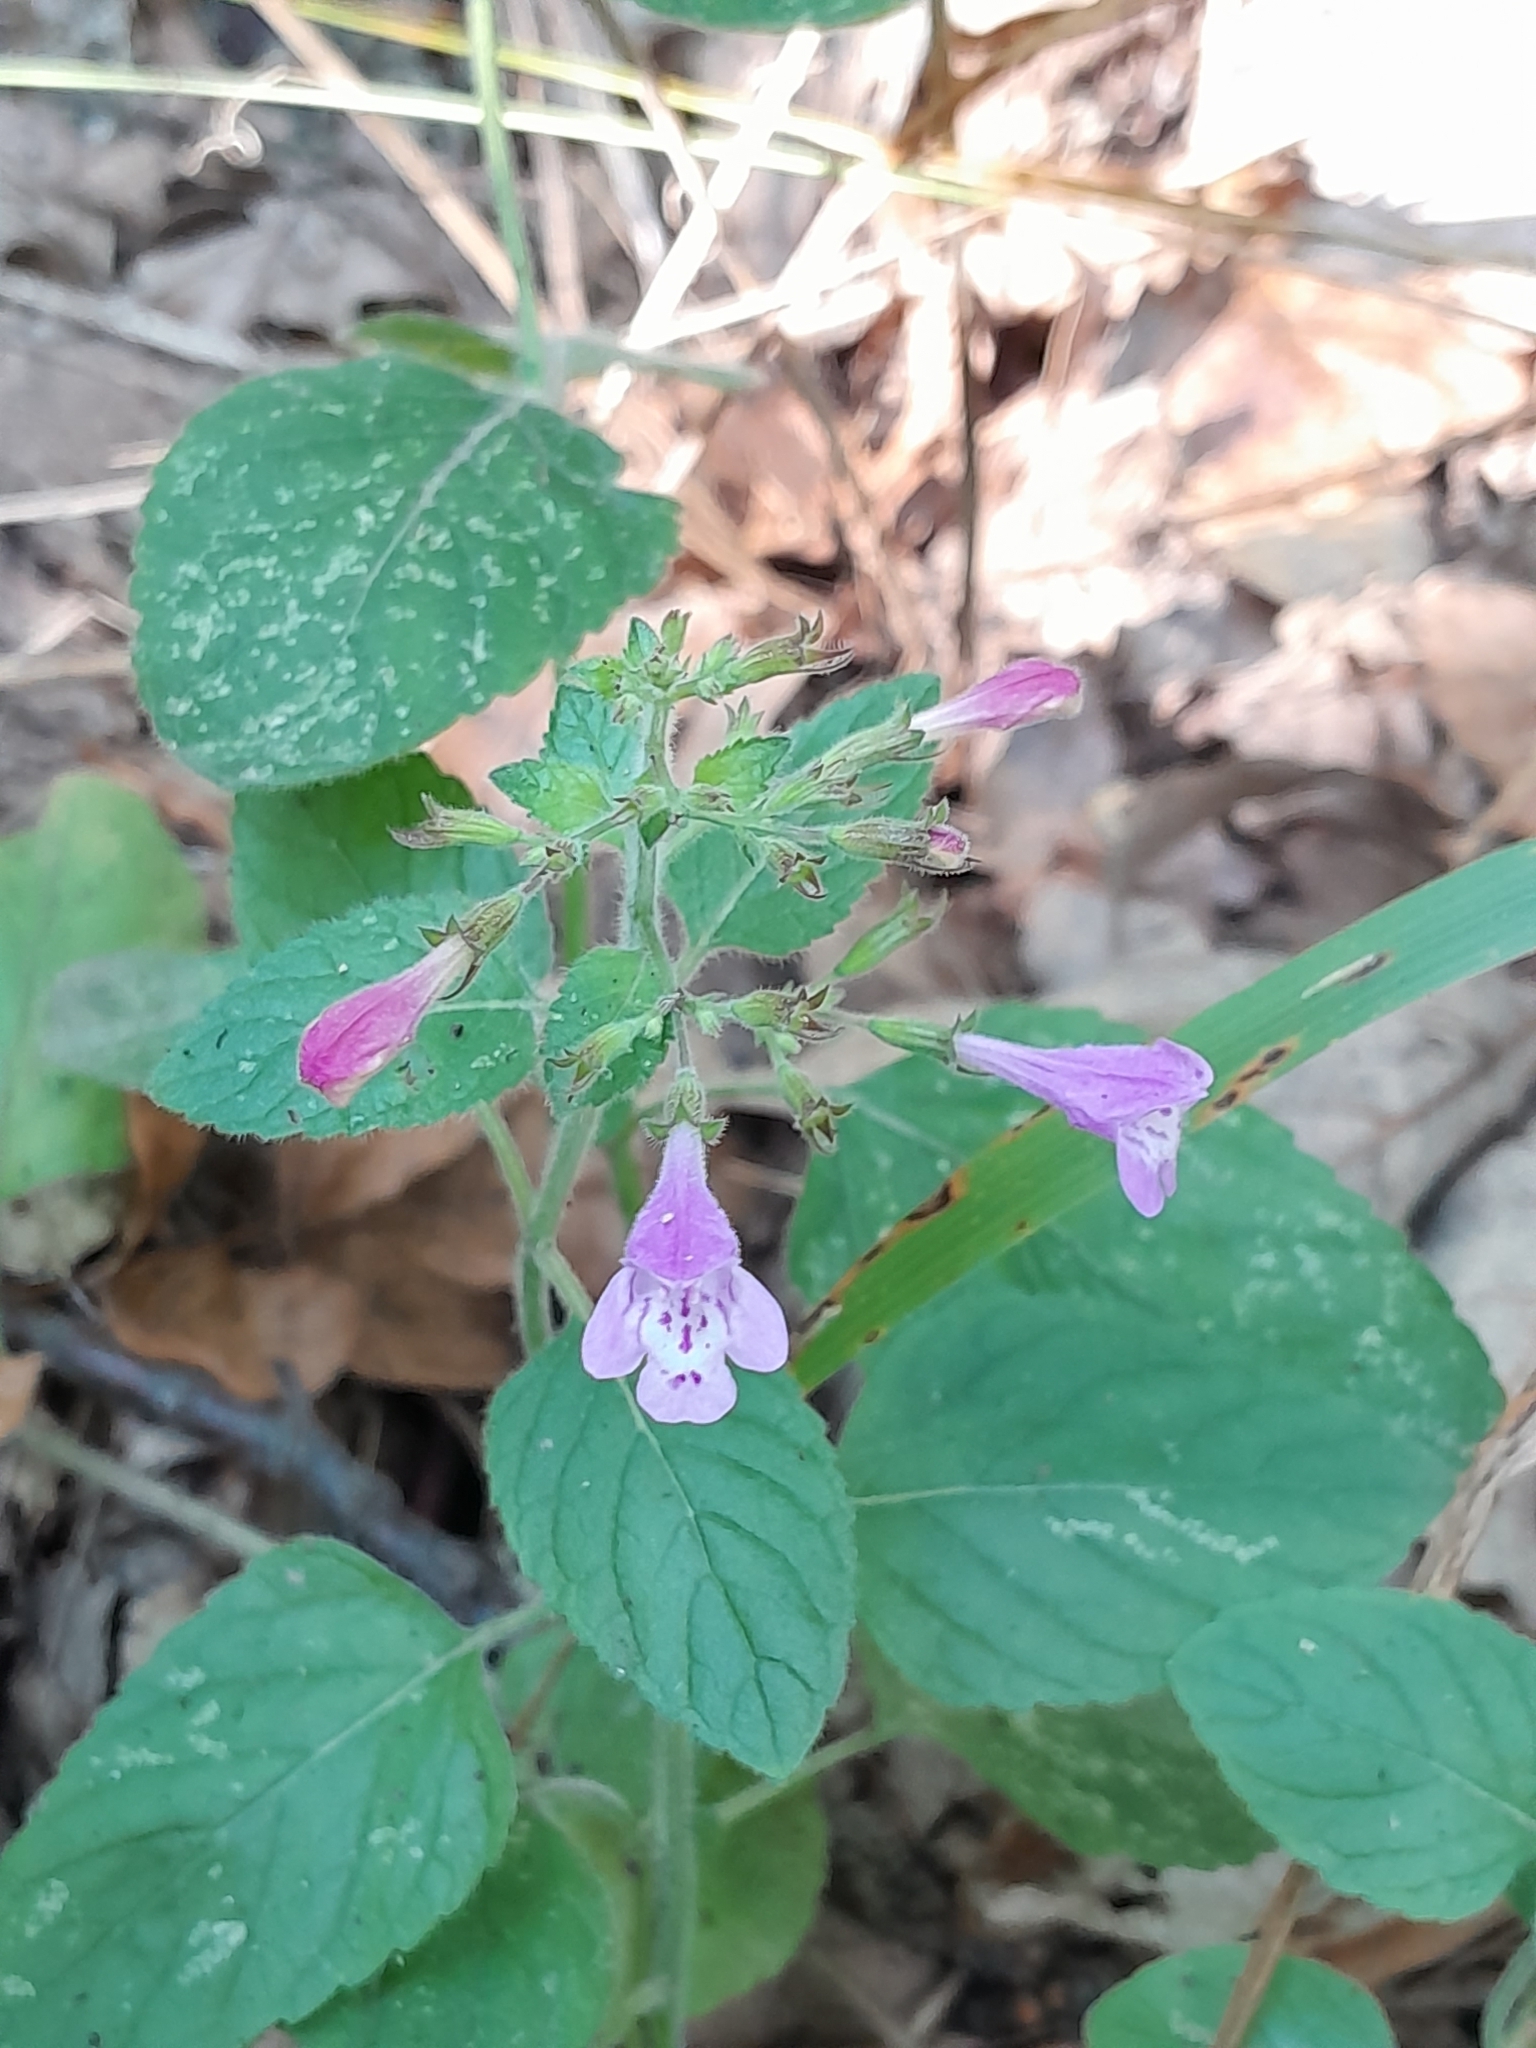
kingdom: Plantae
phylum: Tracheophyta
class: Magnoliopsida
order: Lamiales
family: Lamiaceae
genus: Clinopodium
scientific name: Clinopodium menthifolium
